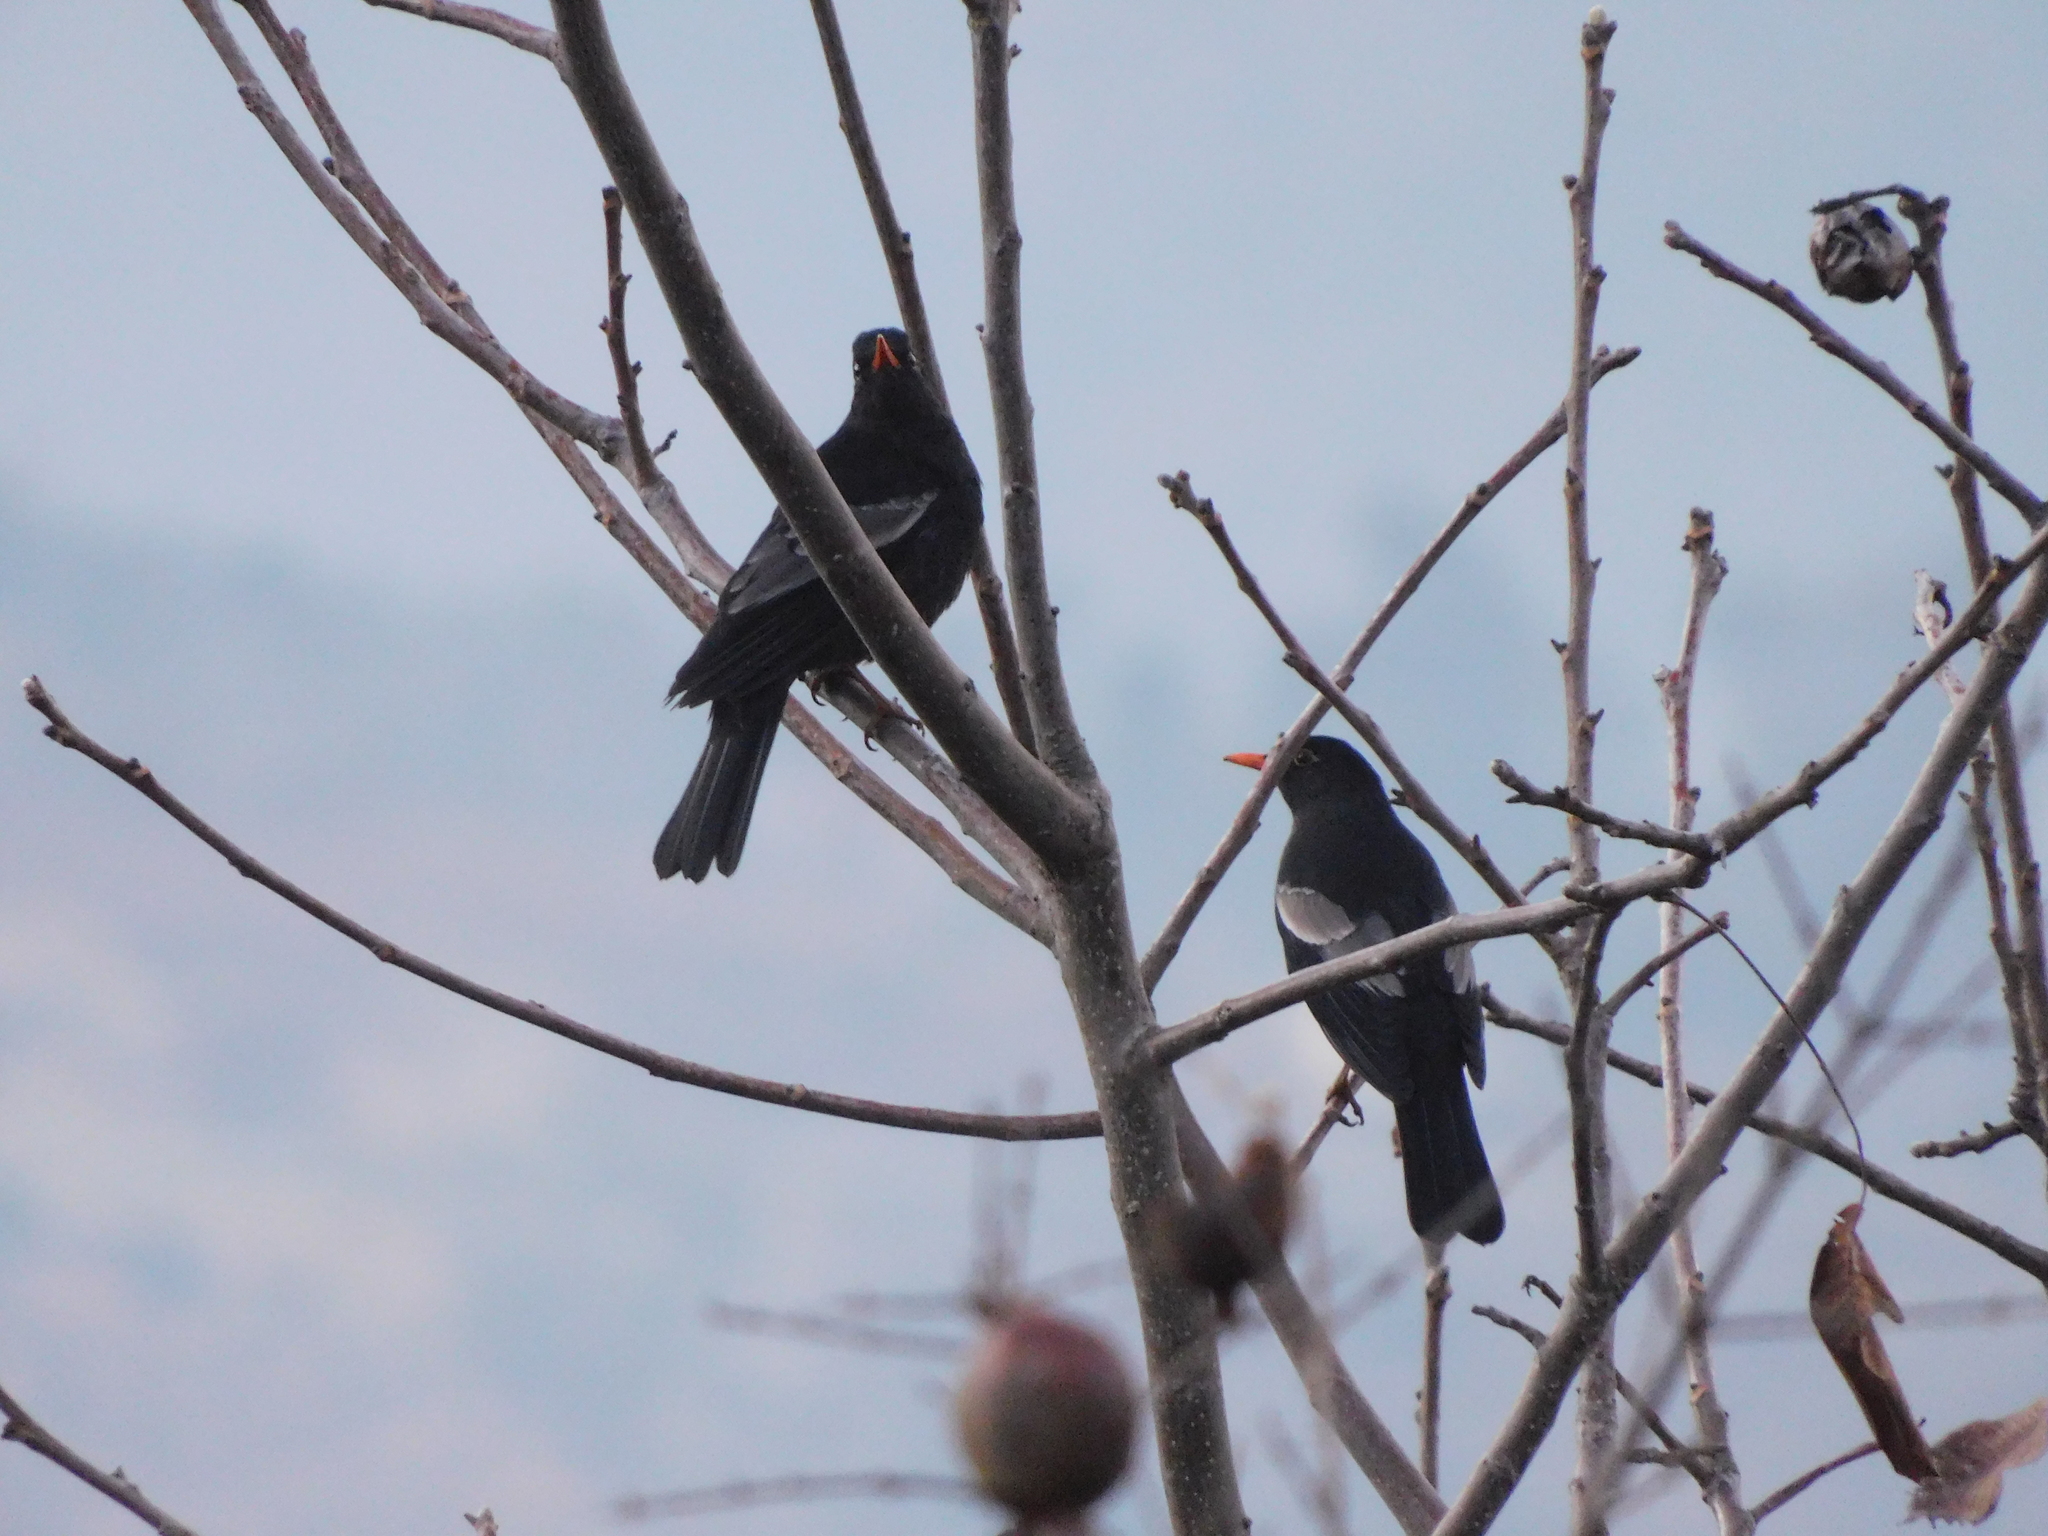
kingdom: Animalia
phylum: Chordata
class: Aves
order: Passeriformes
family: Turdidae
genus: Turdus
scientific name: Turdus boulboul
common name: Grey-winged blackbird
